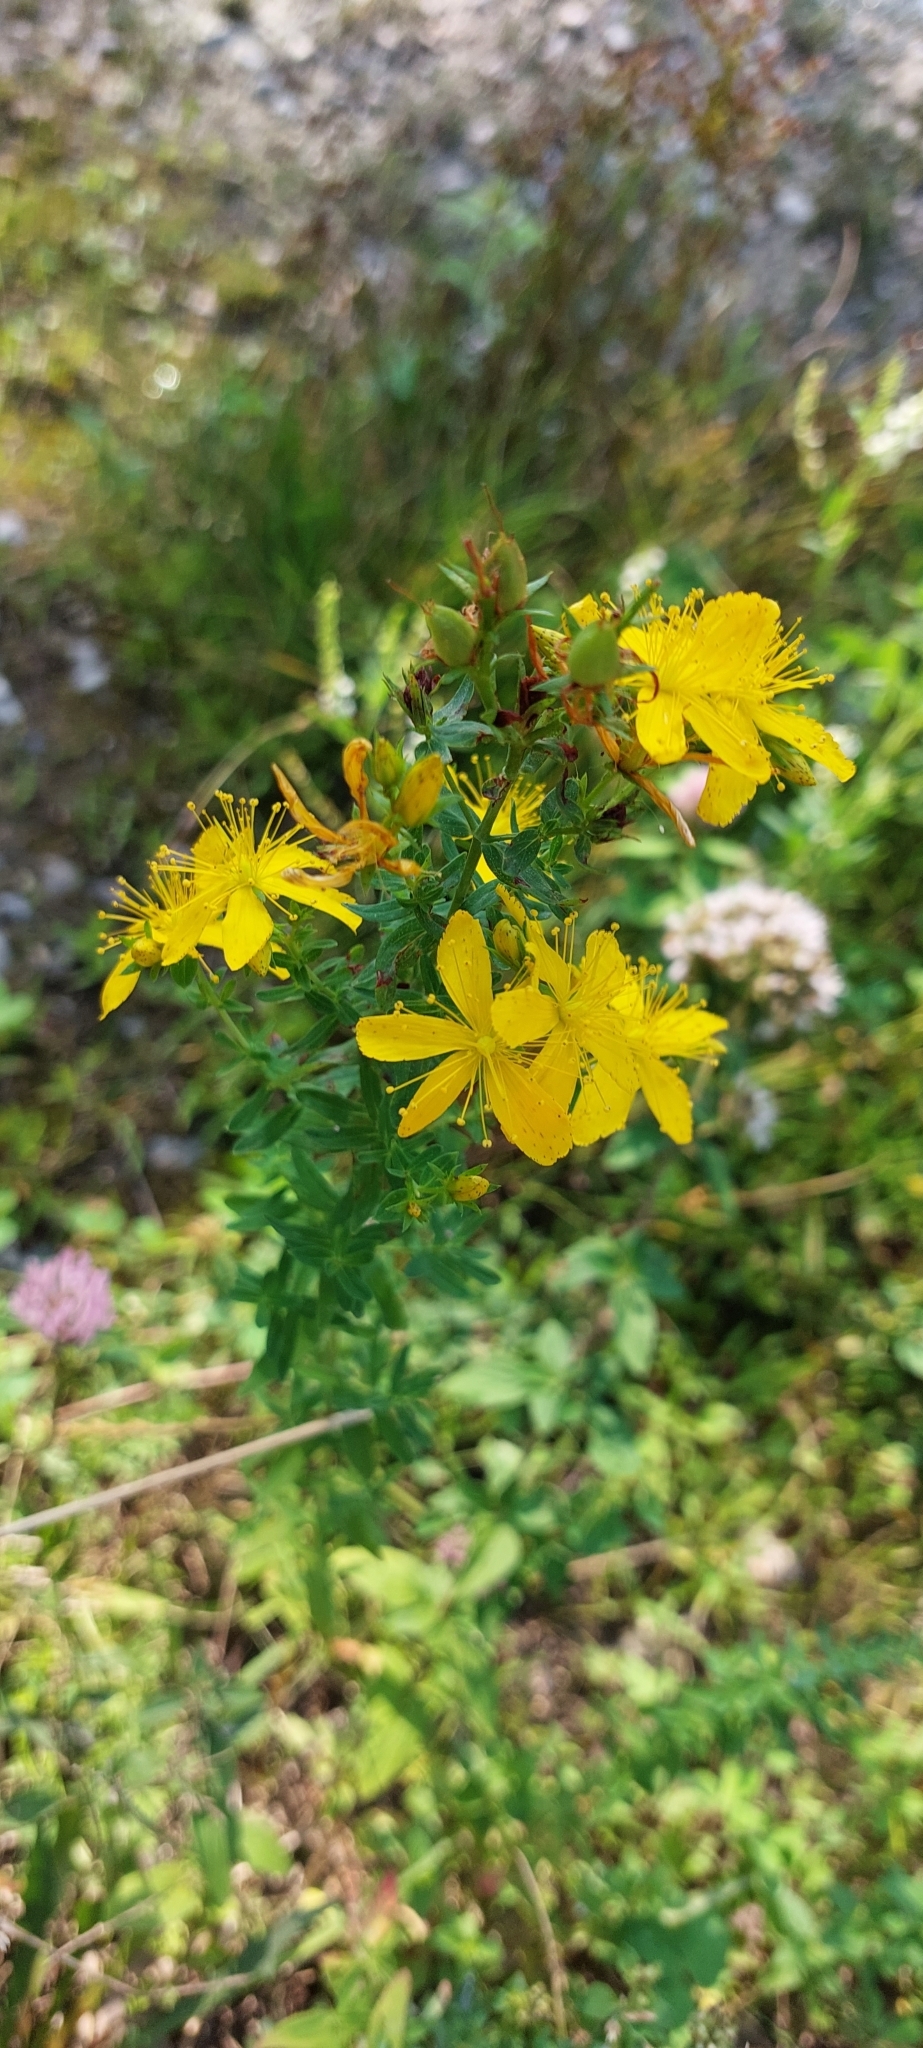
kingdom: Plantae
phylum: Tracheophyta
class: Magnoliopsida
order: Malpighiales
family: Hypericaceae
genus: Hypericum
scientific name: Hypericum perforatum
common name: Common st. johnswort
